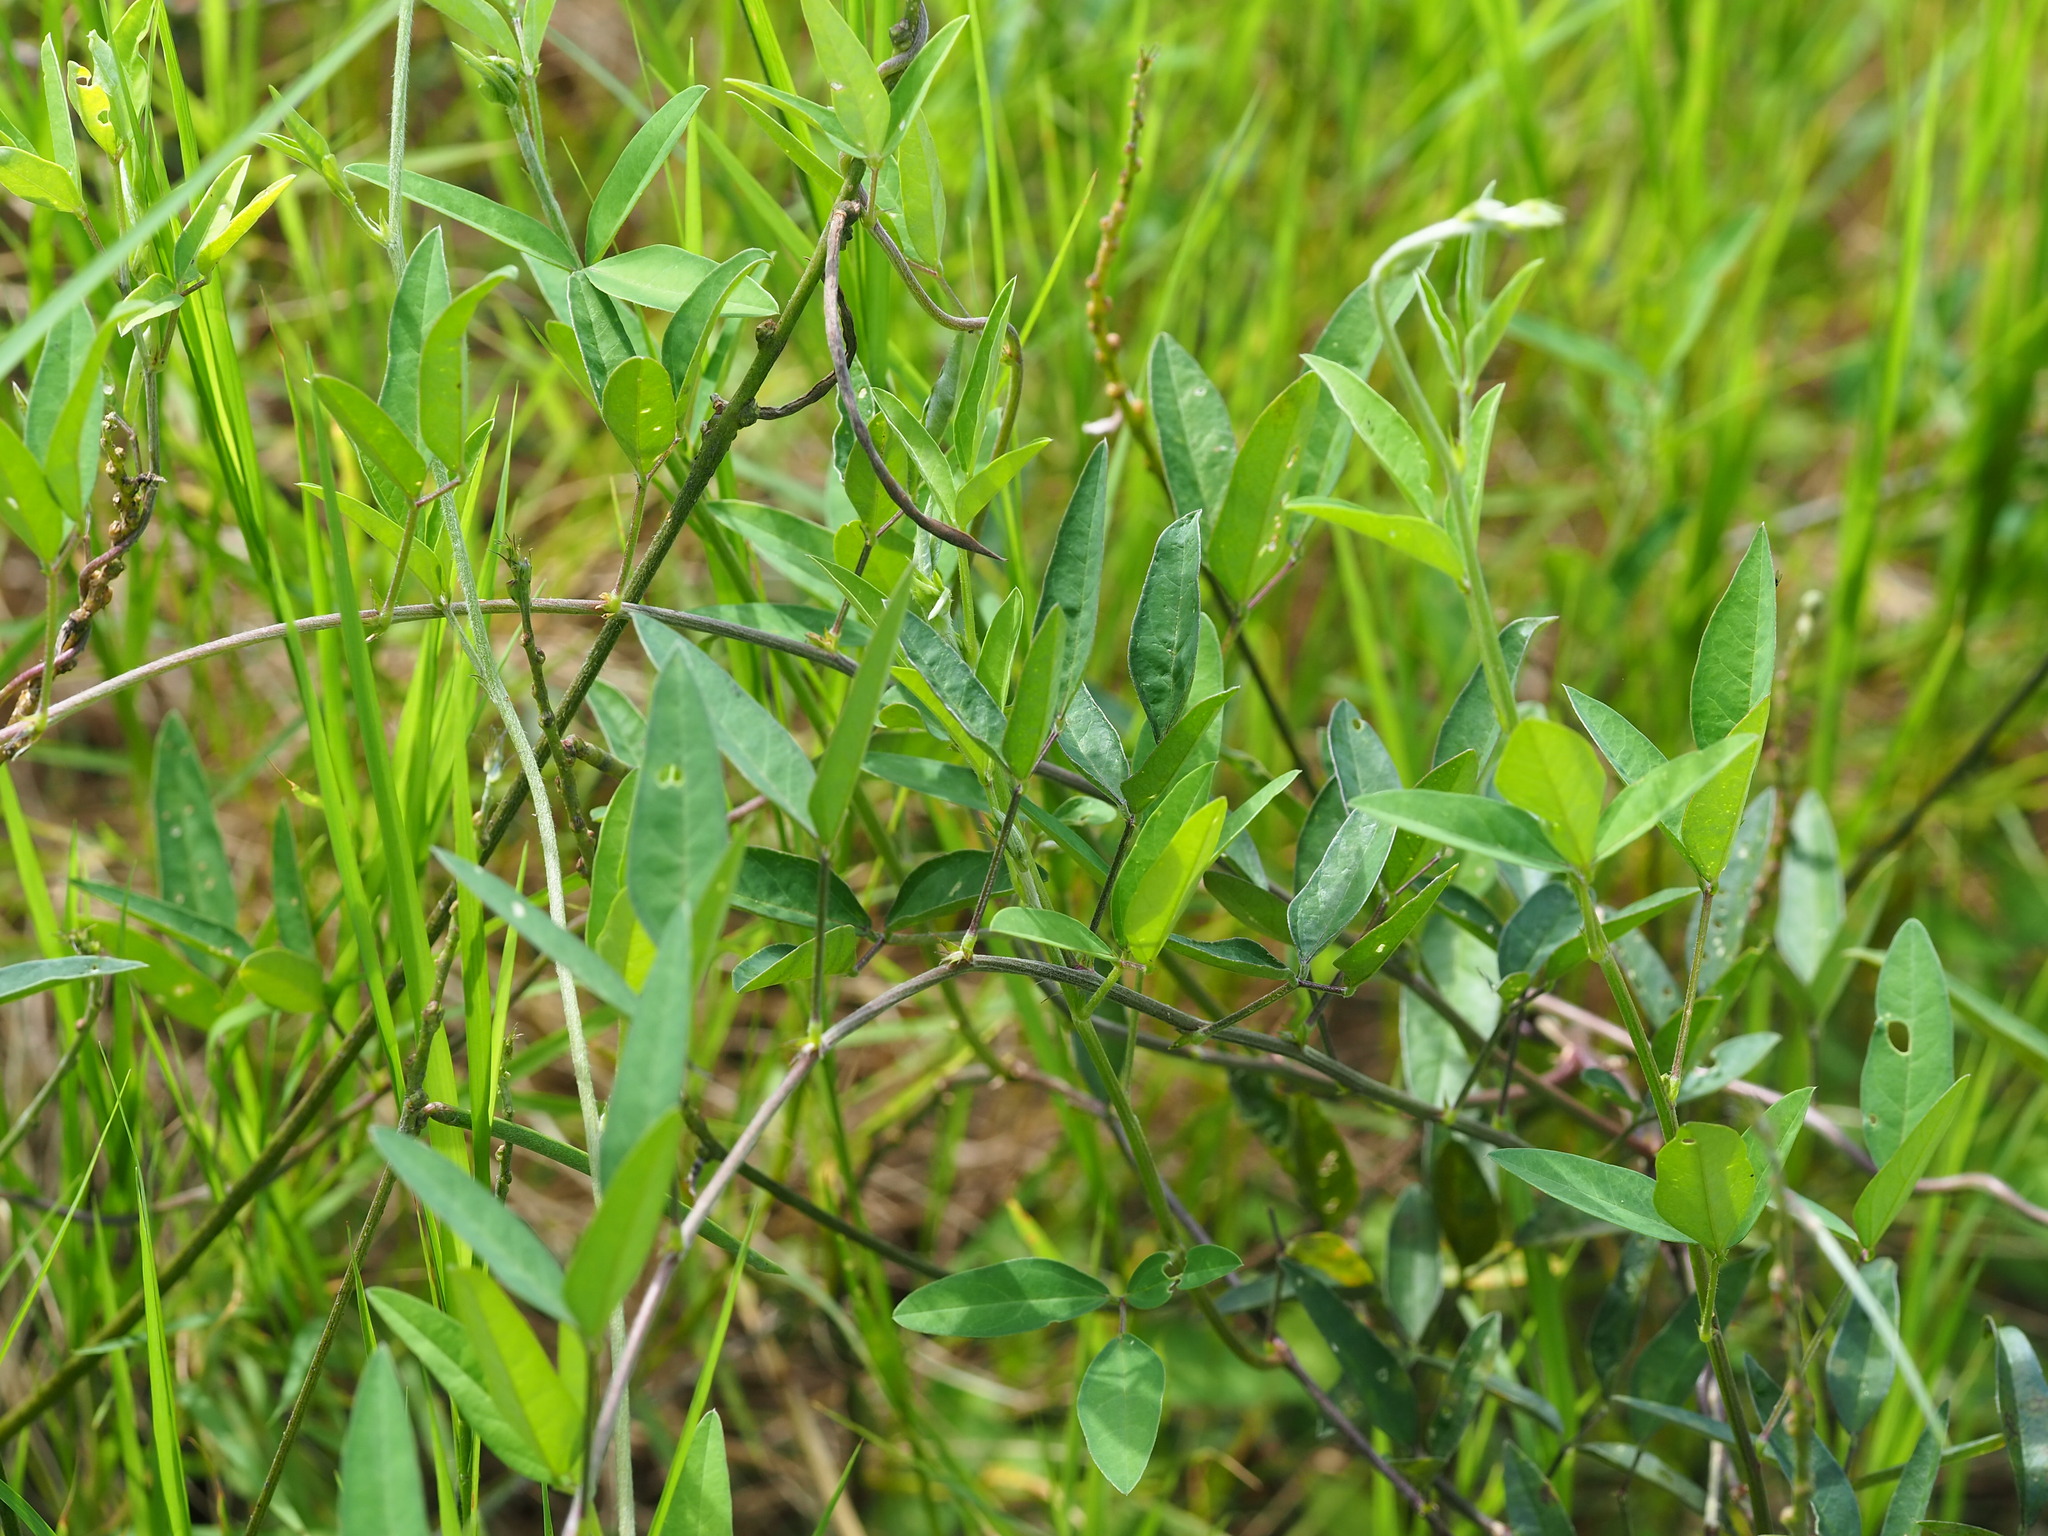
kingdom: Plantae
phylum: Tracheophyta
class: Magnoliopsida
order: Fabales
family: Fabaceae
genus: Macroptilium
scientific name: Macroptilium lathyroides
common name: Wild bushbean
